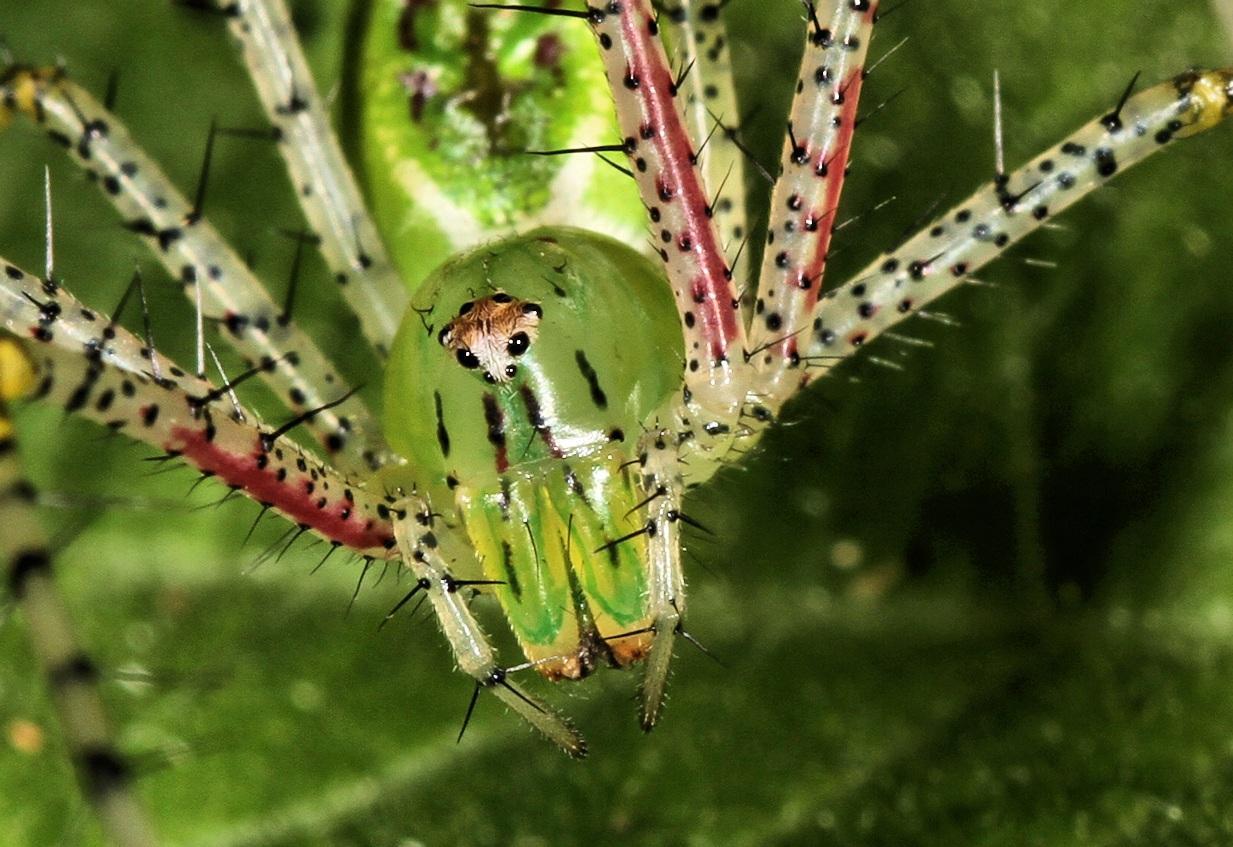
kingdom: Animalia
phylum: Arthropoda
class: Arachnida
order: Araneae
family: Oxyopidae
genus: Peucetia
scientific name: Peucetia pulchra
